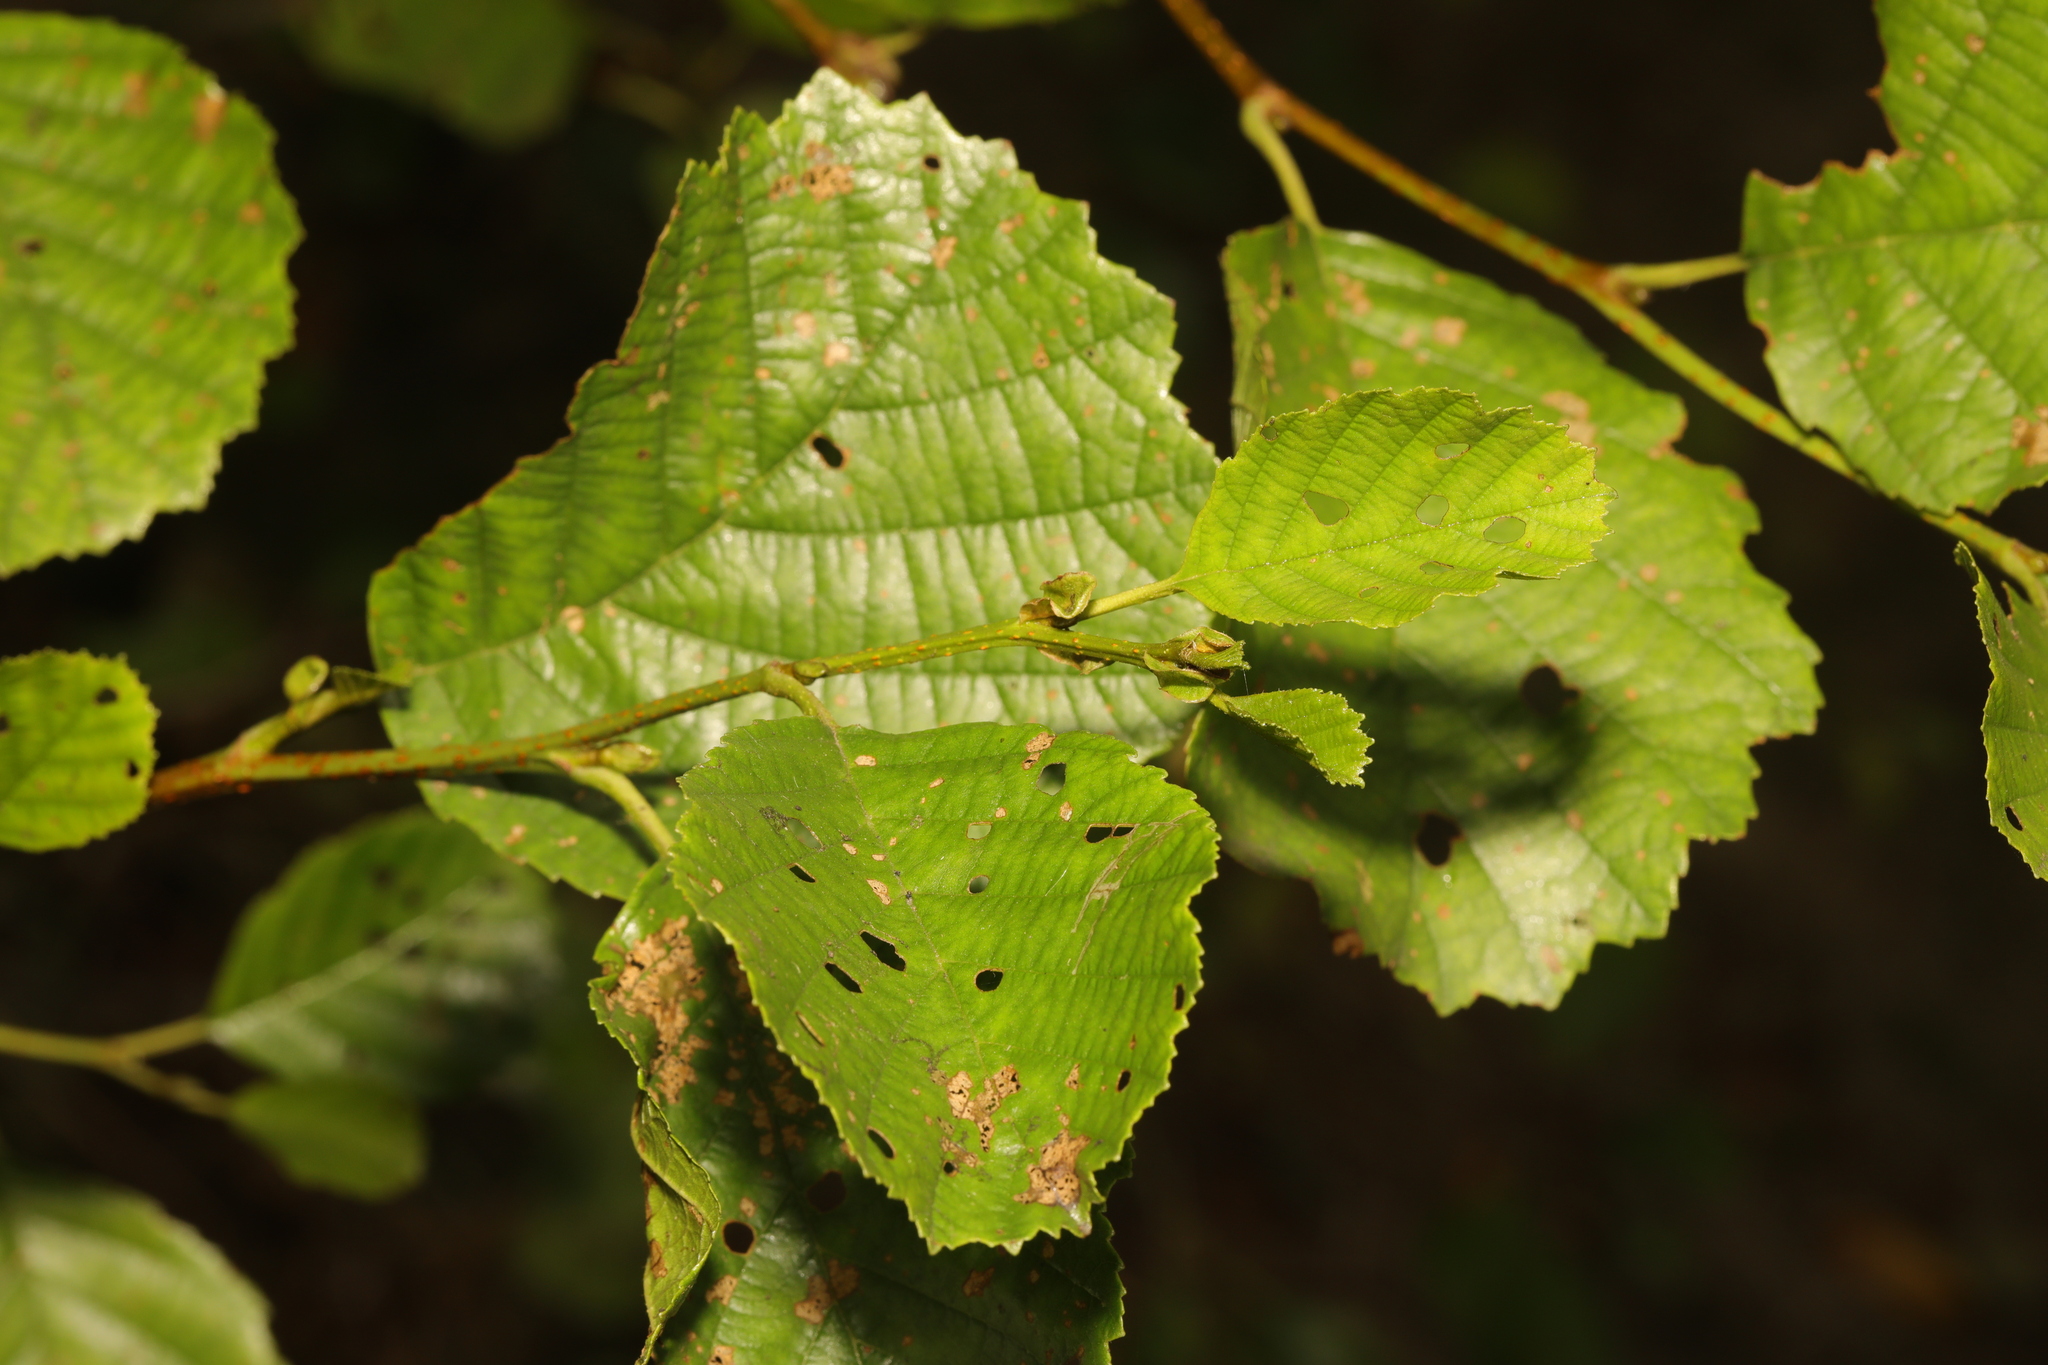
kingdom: Plantae
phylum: Tracheophyta
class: Magnoliopsida
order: Fagales
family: Betulaceae
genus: Alnus
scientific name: Alnus glutinosa
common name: Black alder
